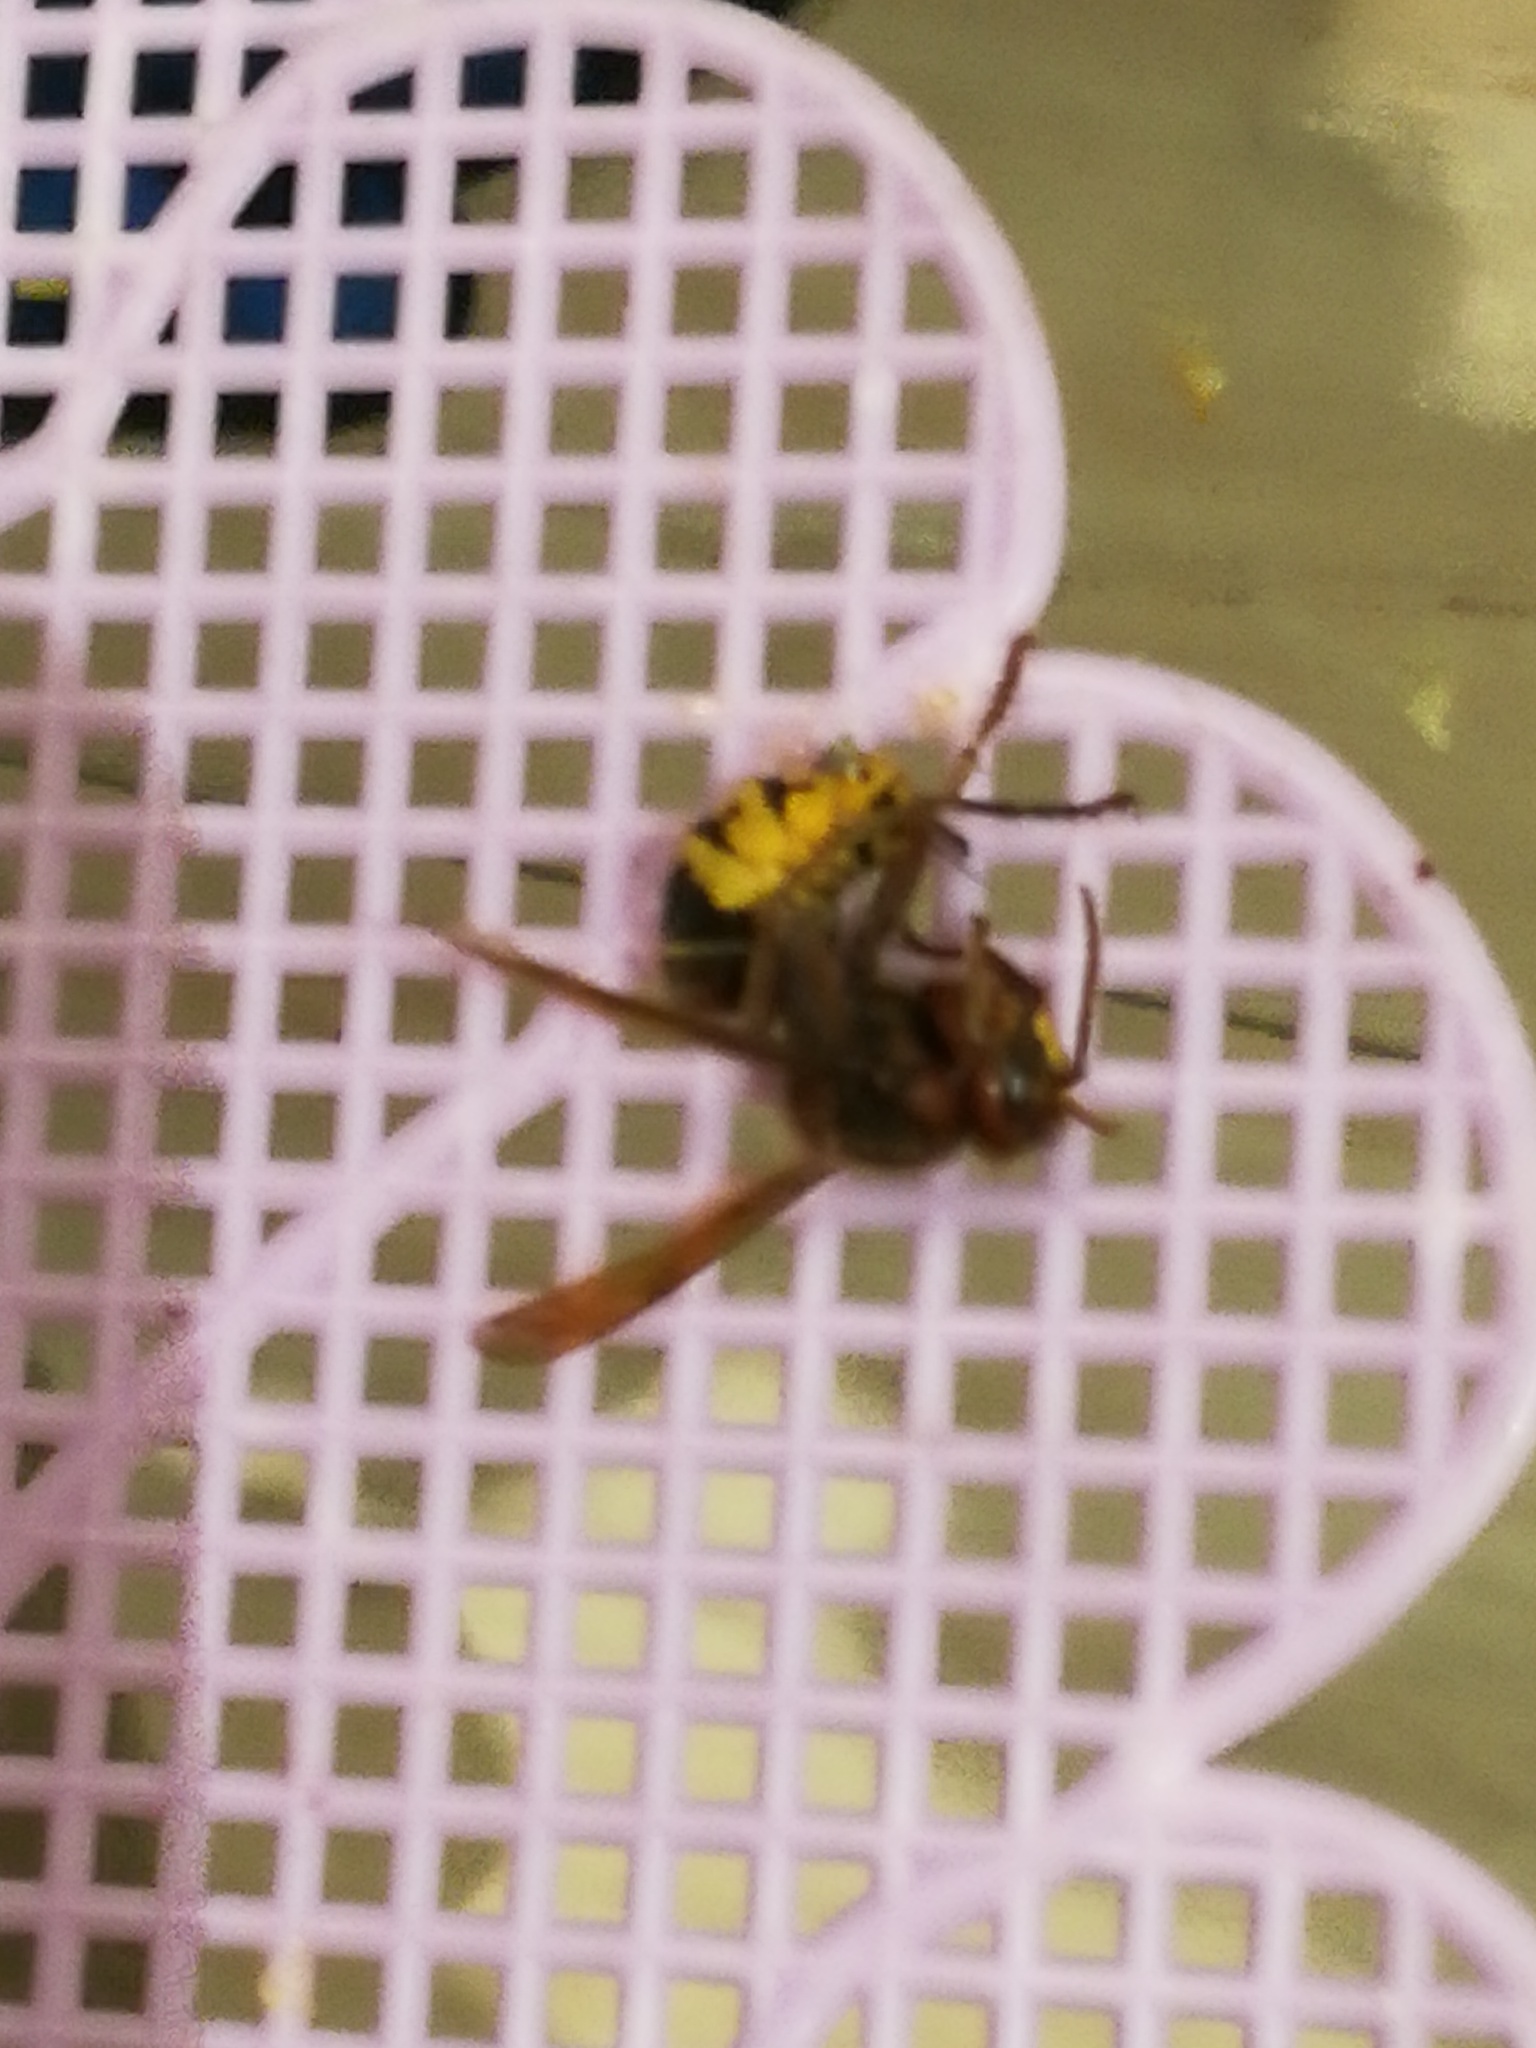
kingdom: Animalia
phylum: Arthropoda
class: Insecta
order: Hymenoptera
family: Vespidae
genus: Vespa
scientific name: Vespa crabro
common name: Hornet
